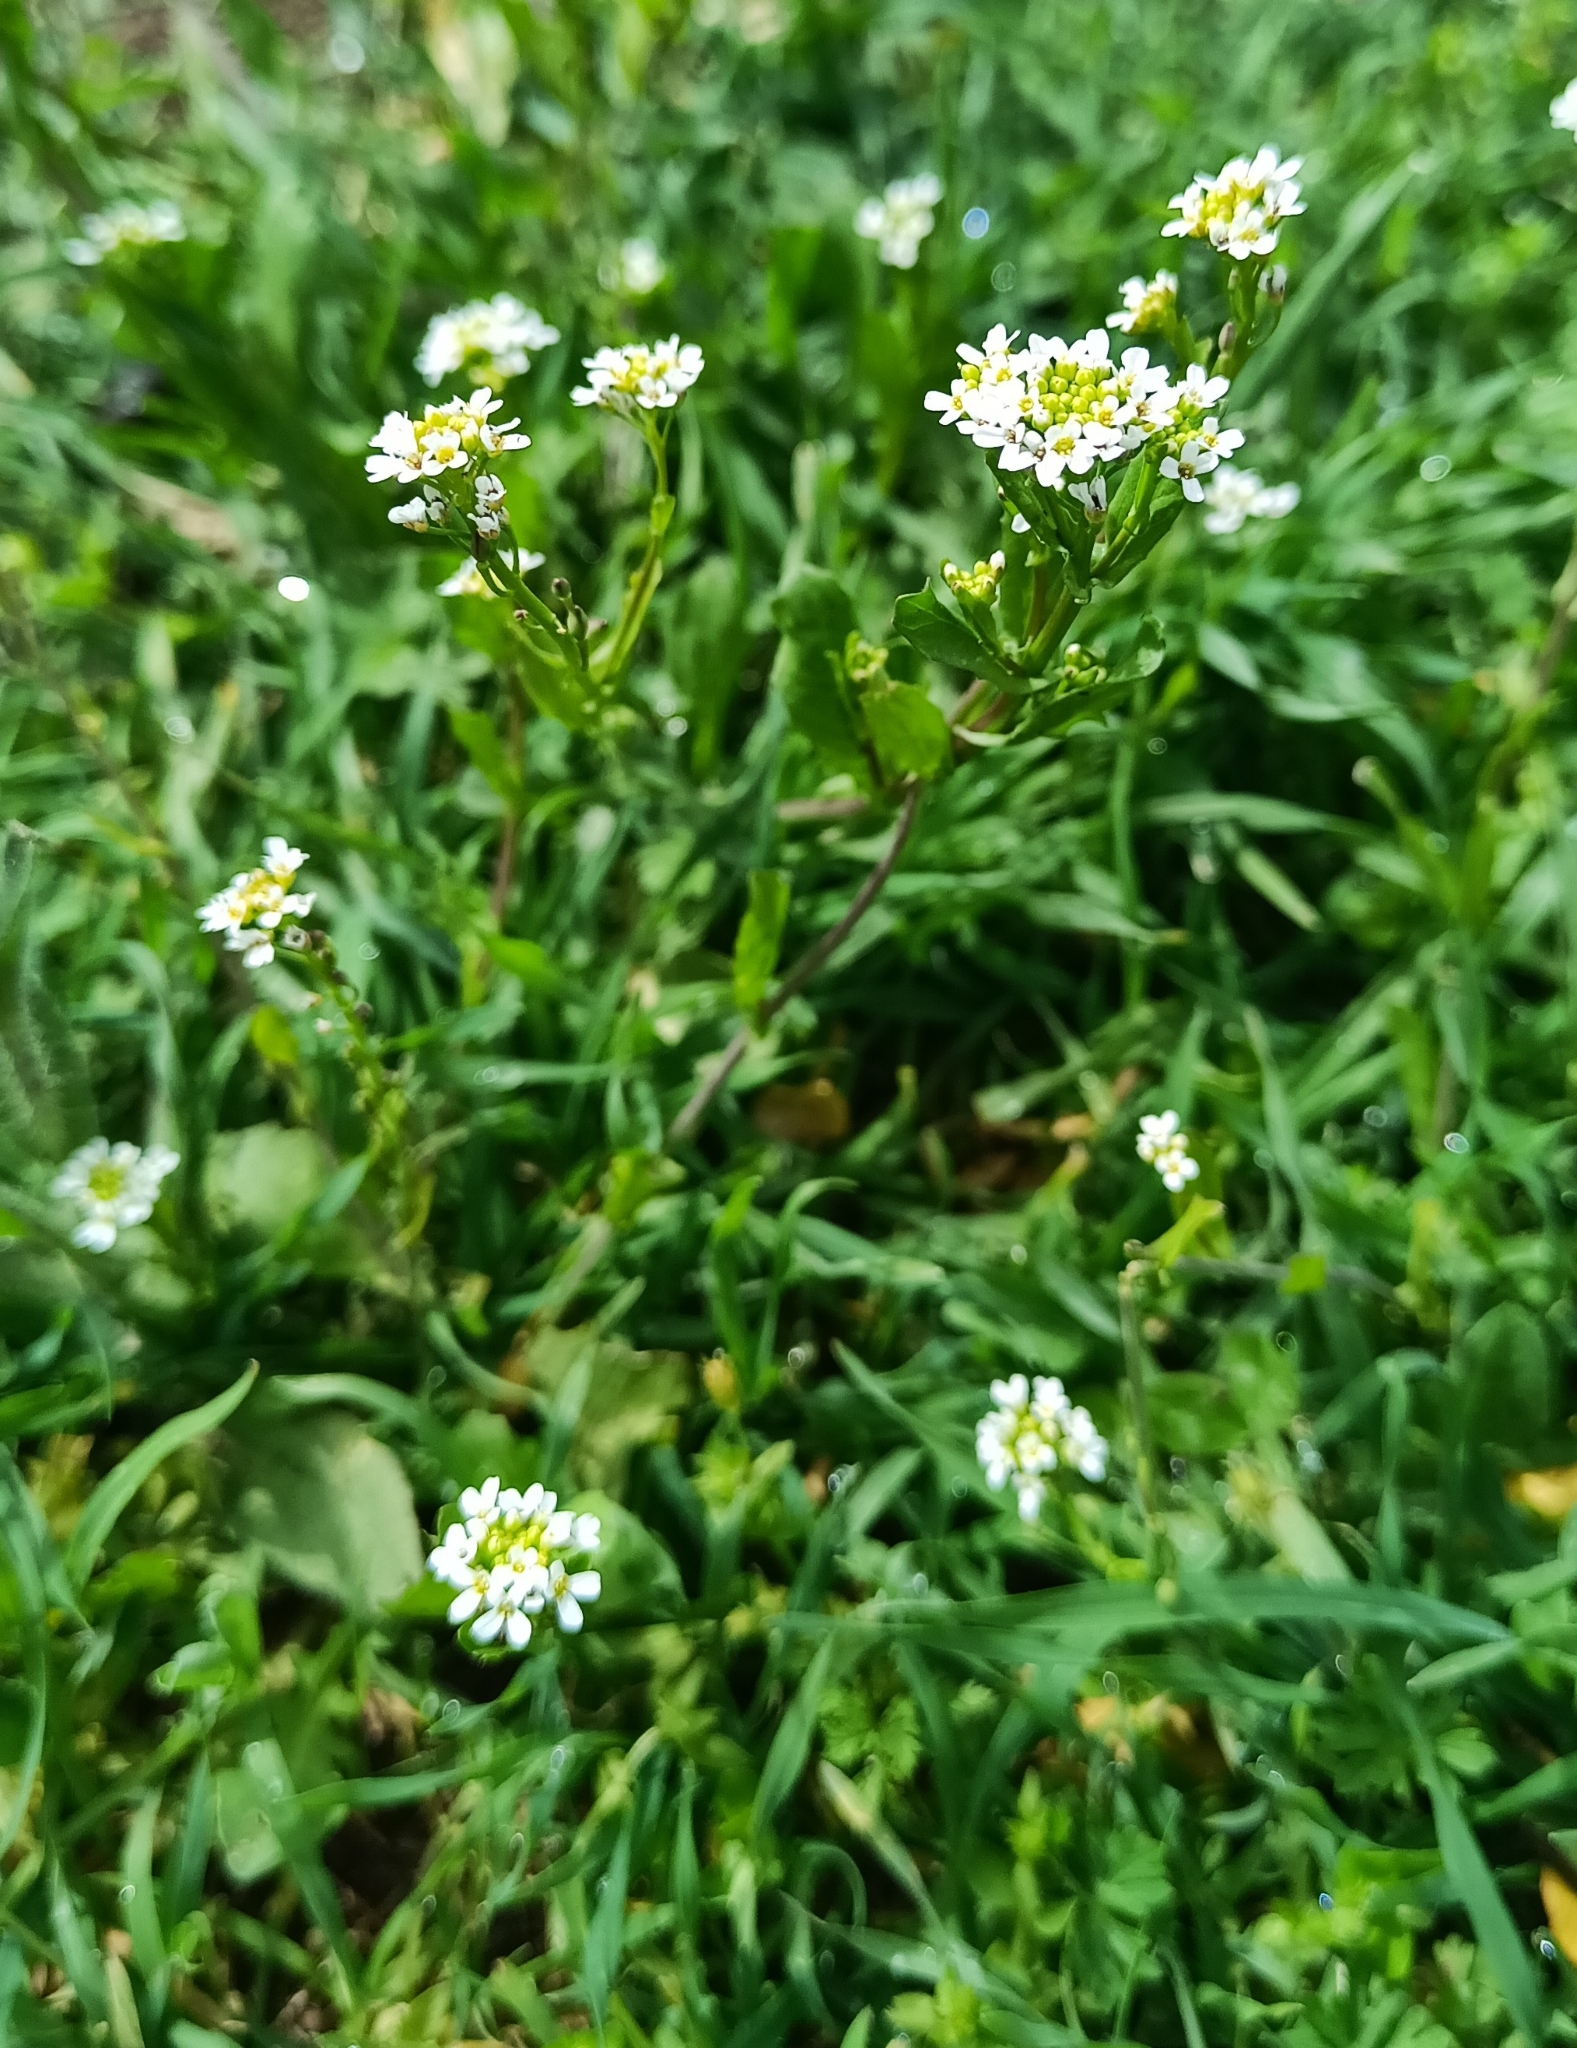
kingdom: Plantae
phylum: Tracheophyta
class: Magnoliopsida
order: Brassicales
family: Brassicaceae
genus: Berteroa
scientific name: Berteroa incana
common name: Hoary alison
